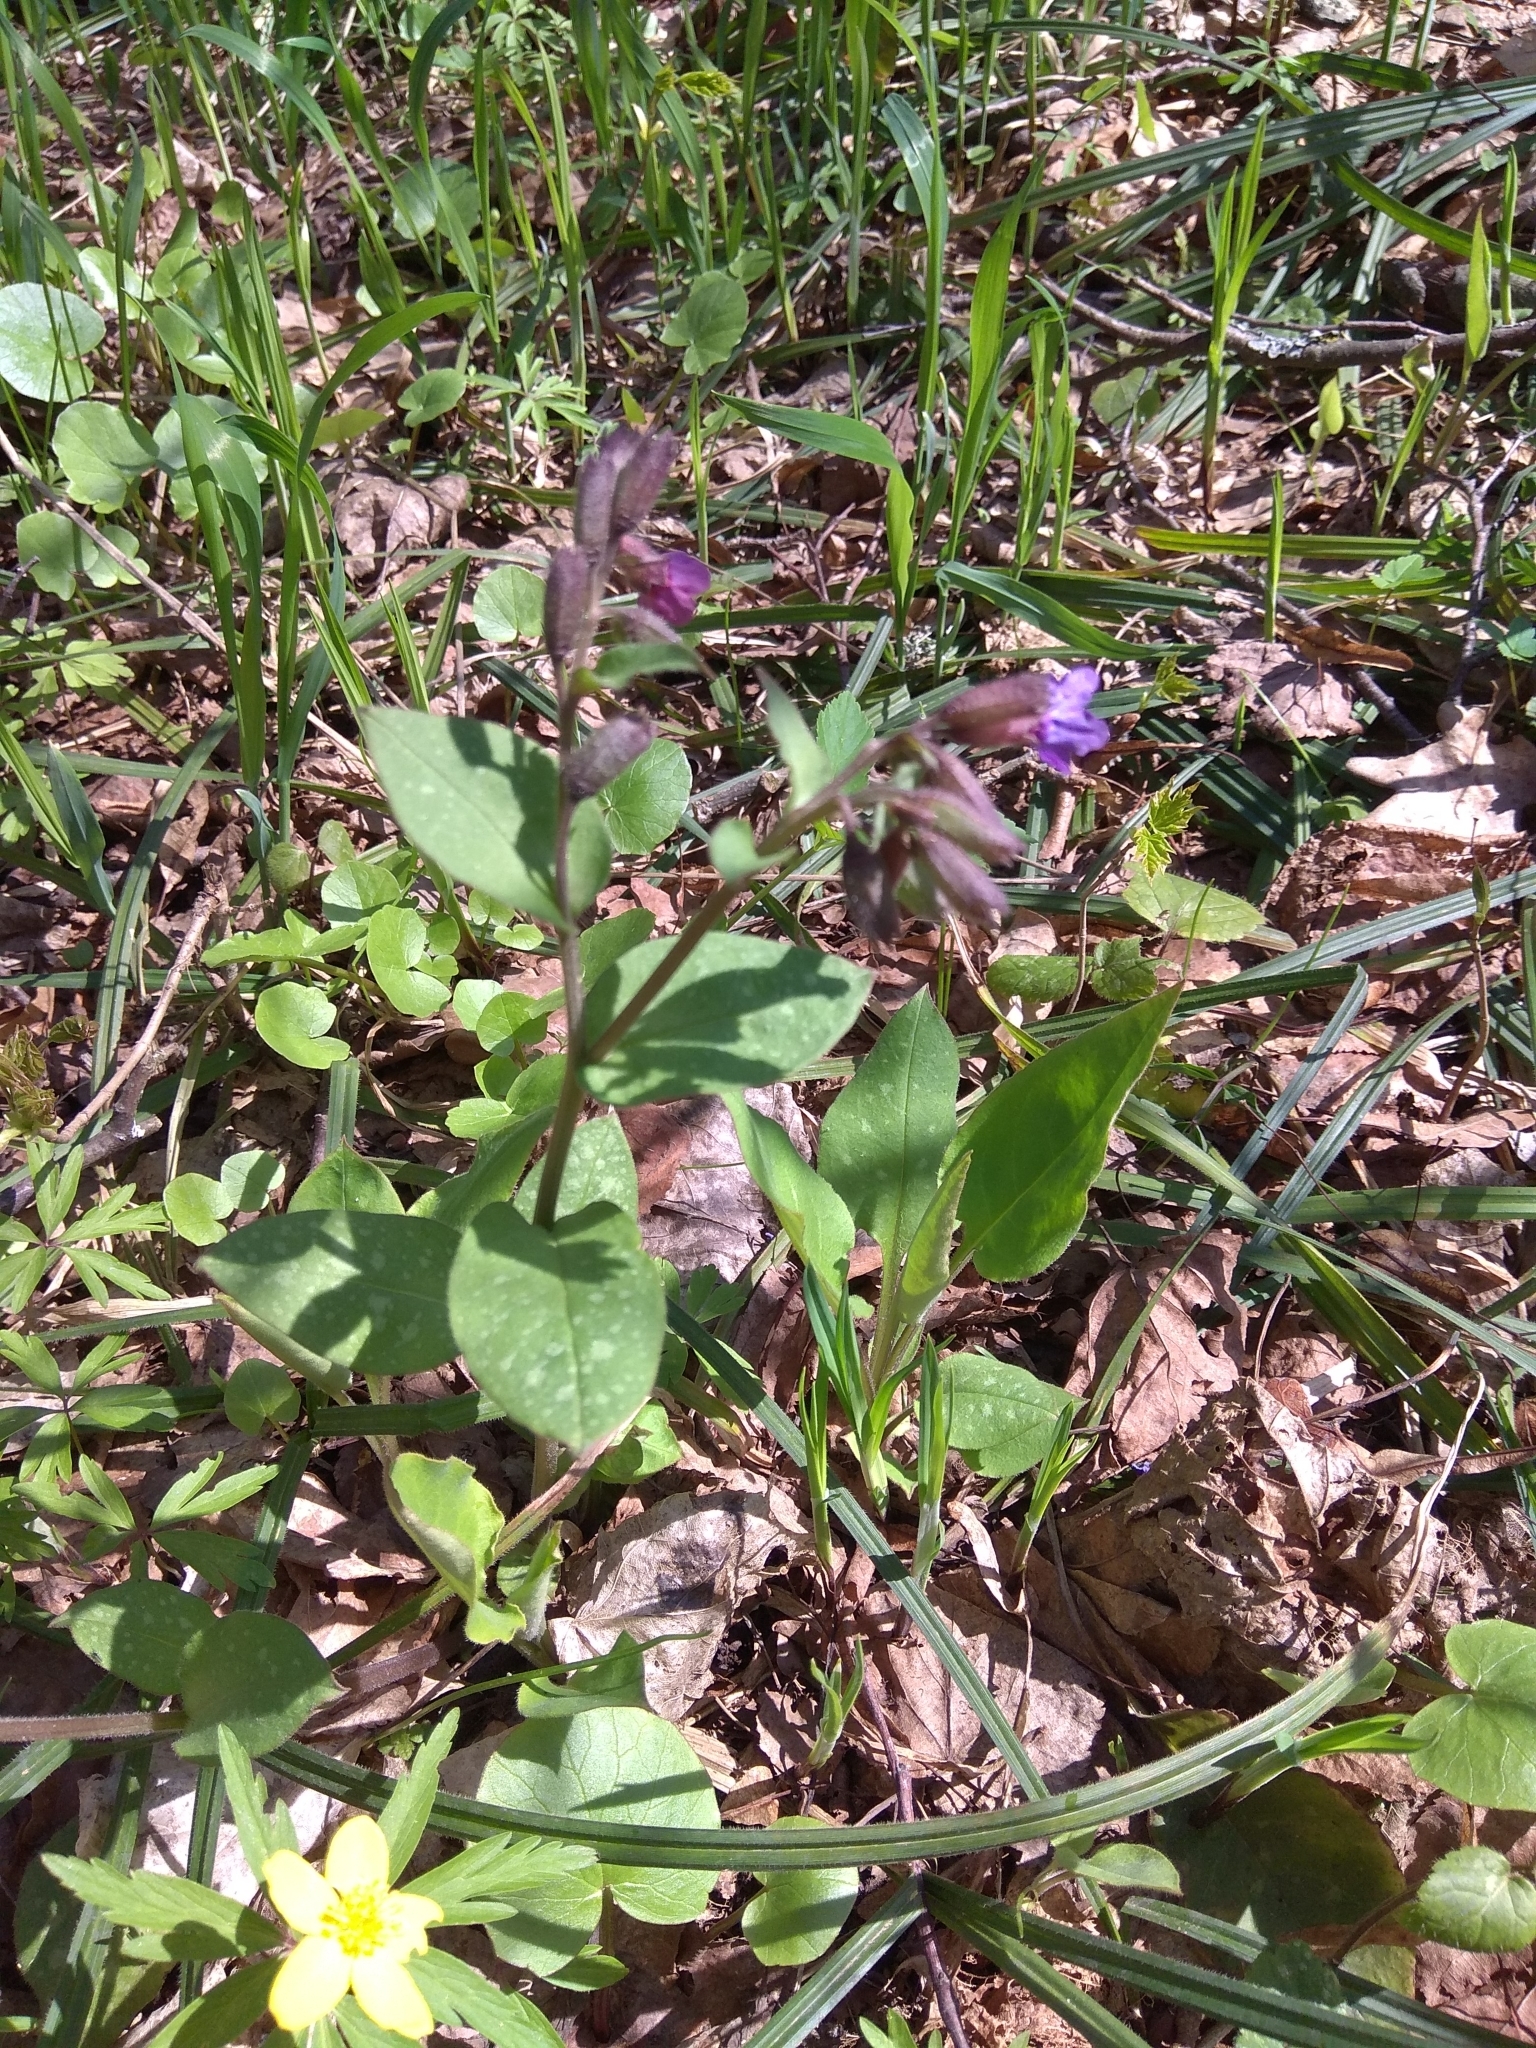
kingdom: Plantae
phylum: Tracheophyta
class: Magnoliopsida
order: Boraginales
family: Boraginaceae
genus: Pulmonaria
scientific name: Pulmonaria obscura
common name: Suffolk lungwort
